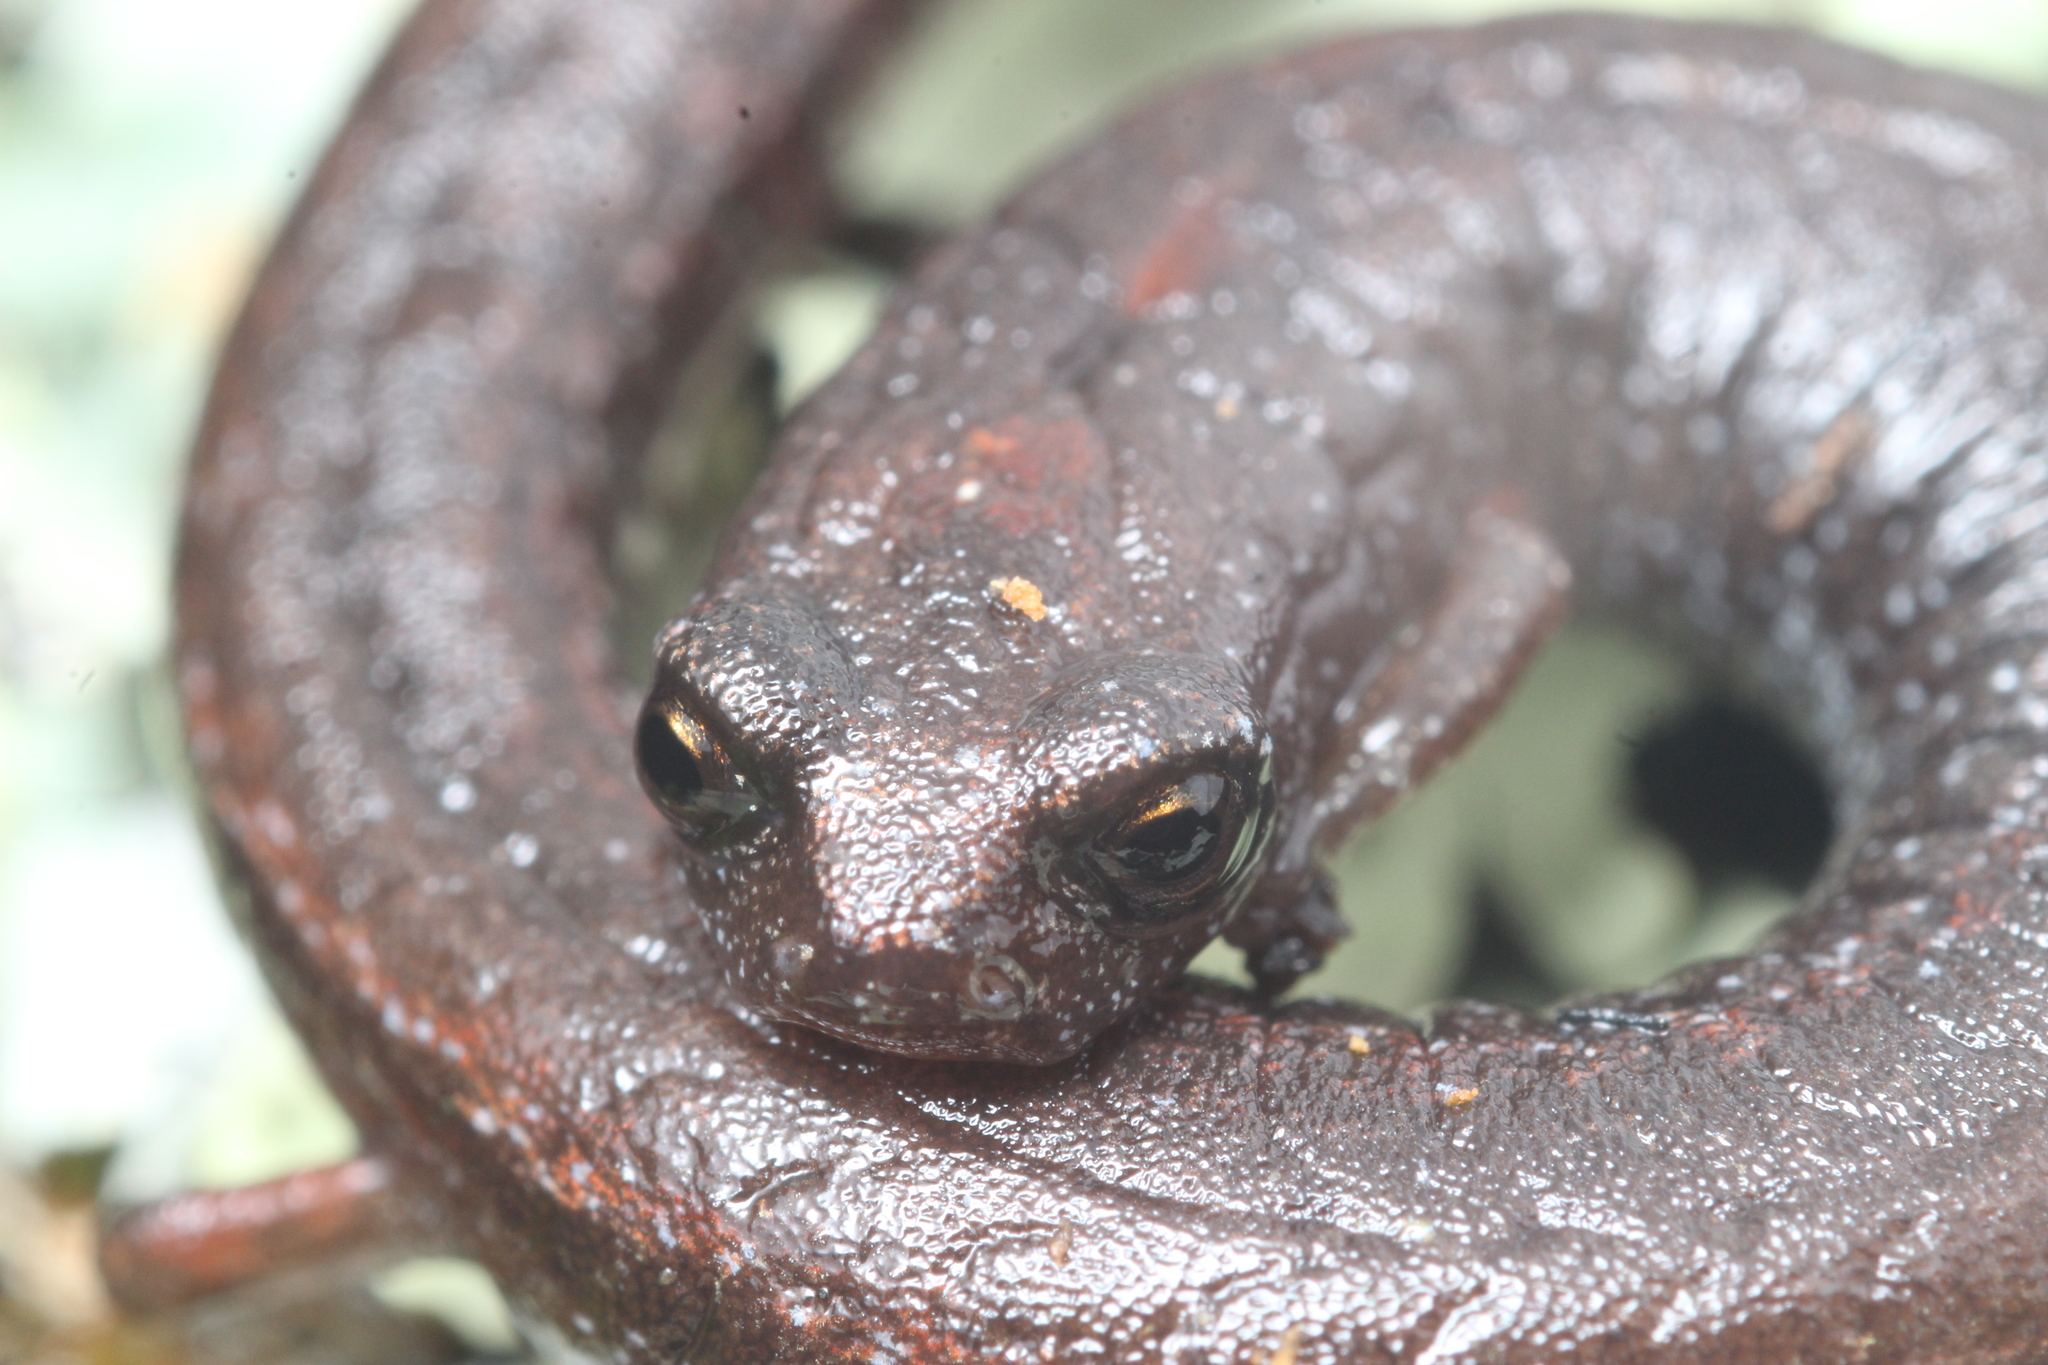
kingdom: Animalia
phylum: Chordata
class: Amphibia
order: Caudata
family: Plethodontidae
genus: Batrachoseps
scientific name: Batrachoseps attenuatus
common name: California slender salamander
